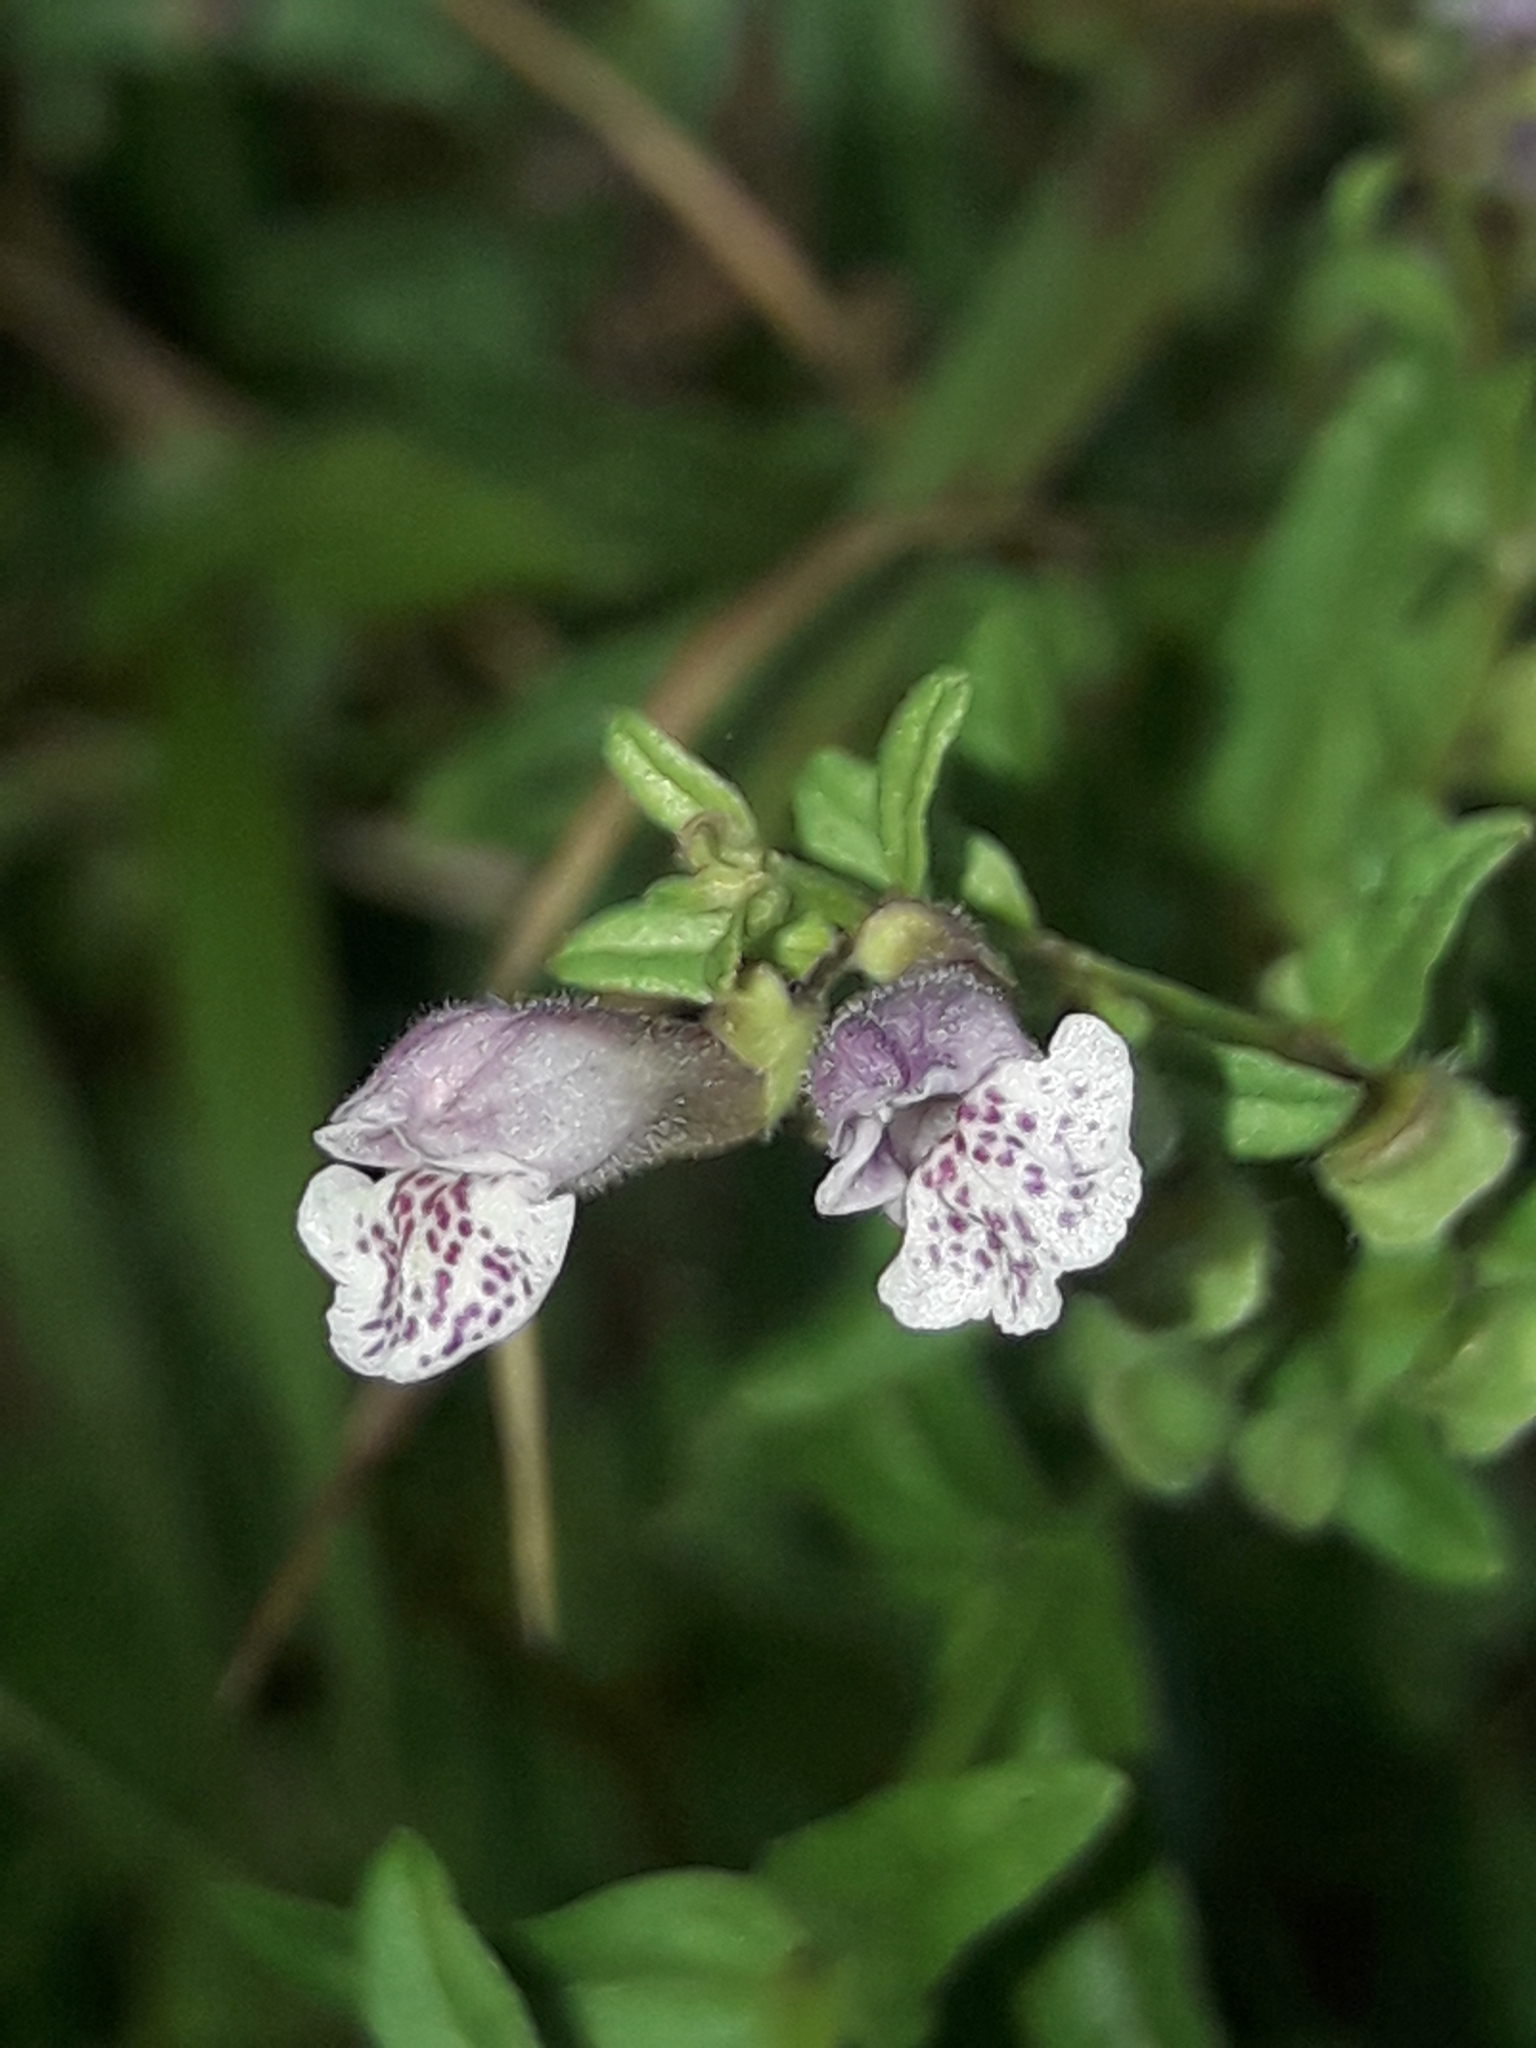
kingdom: Plantae
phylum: Tracheophyta
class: Magnoliopsida
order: Lamiales
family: Lamiaceae
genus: Scutellaria
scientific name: Scutellaria minor
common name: Lesser skullcap
